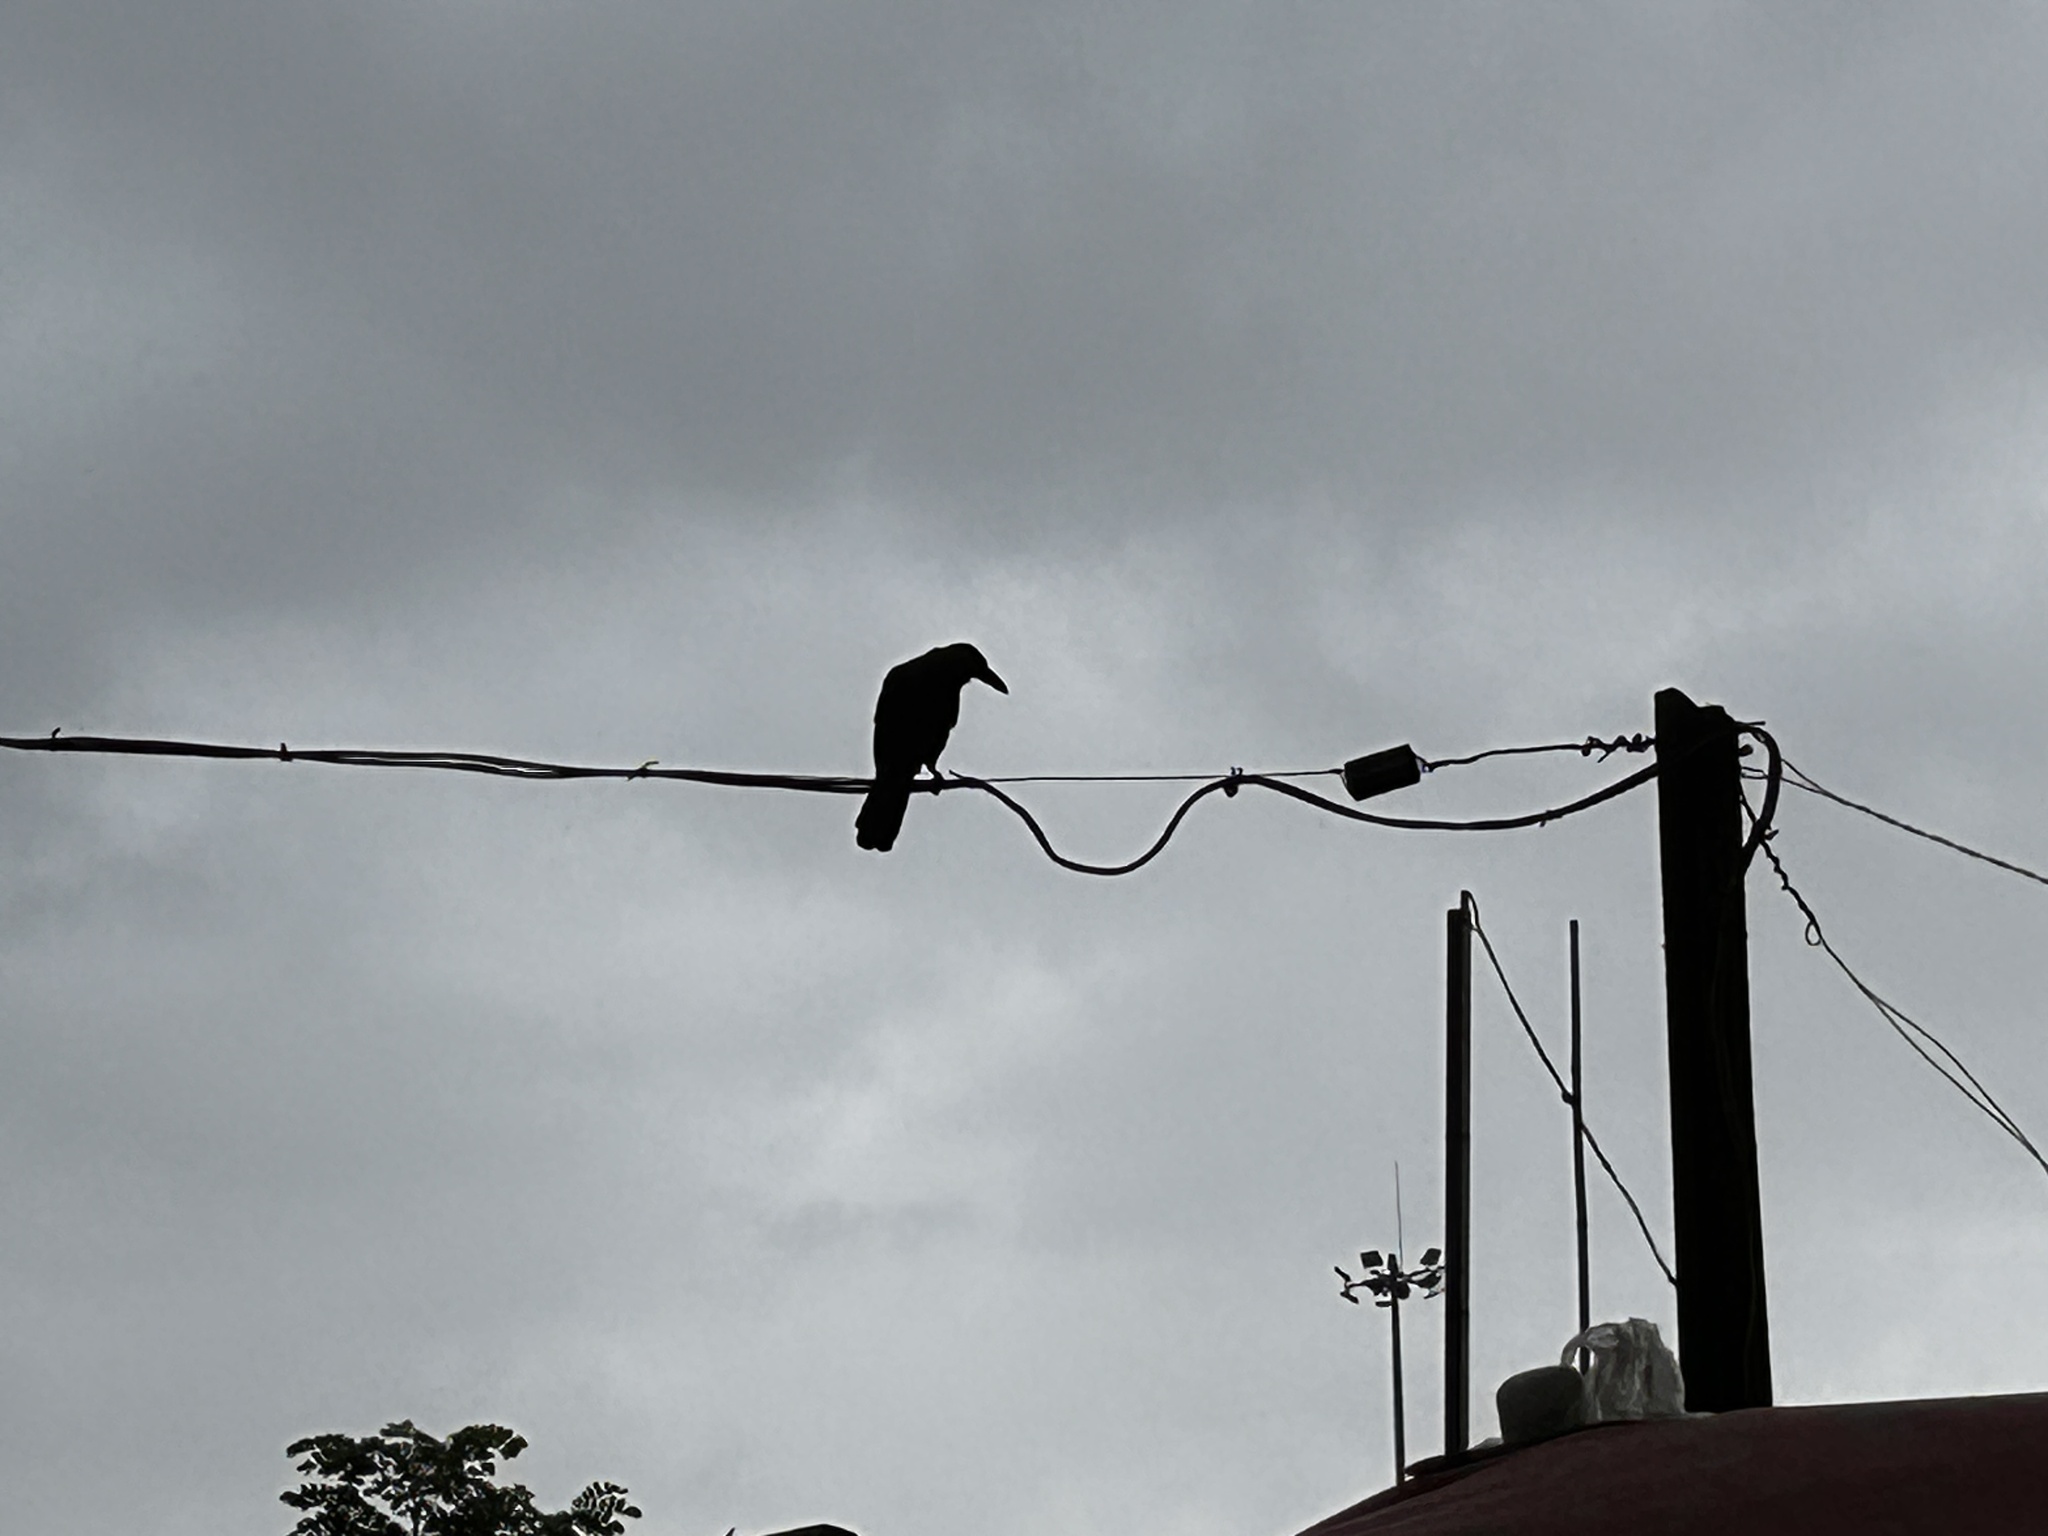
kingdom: Animalia
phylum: Chordata
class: Aves
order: Passeriformes
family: Corvidae
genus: Corvus
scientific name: Corvus splendens
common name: House crow
